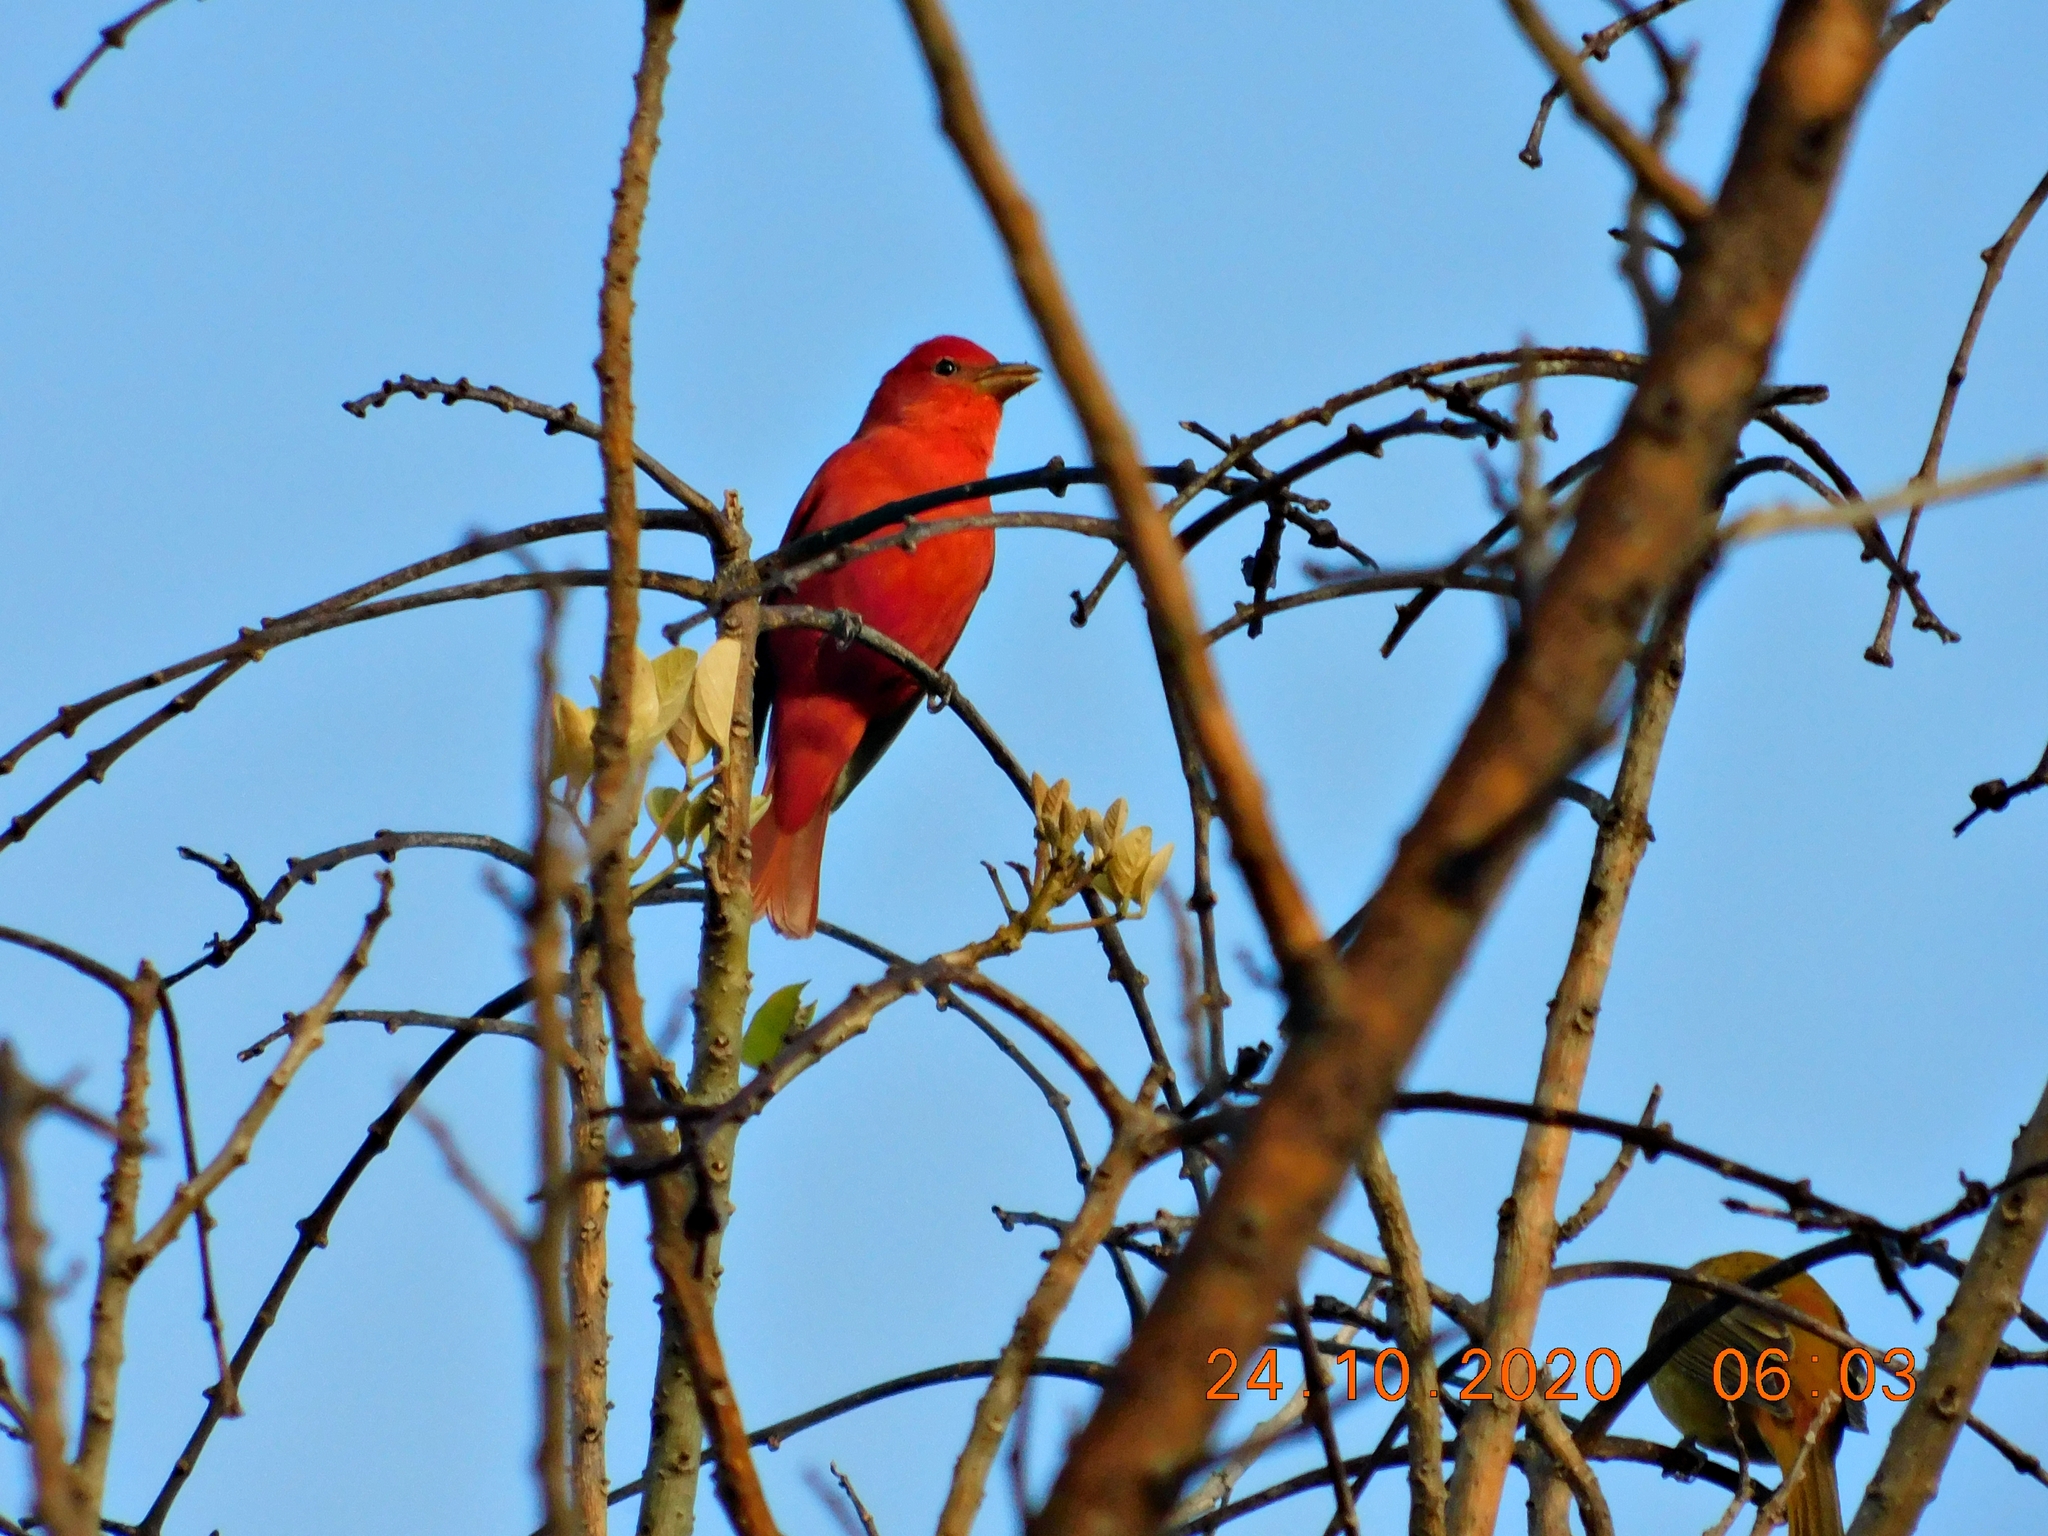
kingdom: Animalia
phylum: Chordata
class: Aves
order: Passeriformes
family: Cardinalidae
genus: Piranga
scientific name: Piranga rubra
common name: Summer tanager
